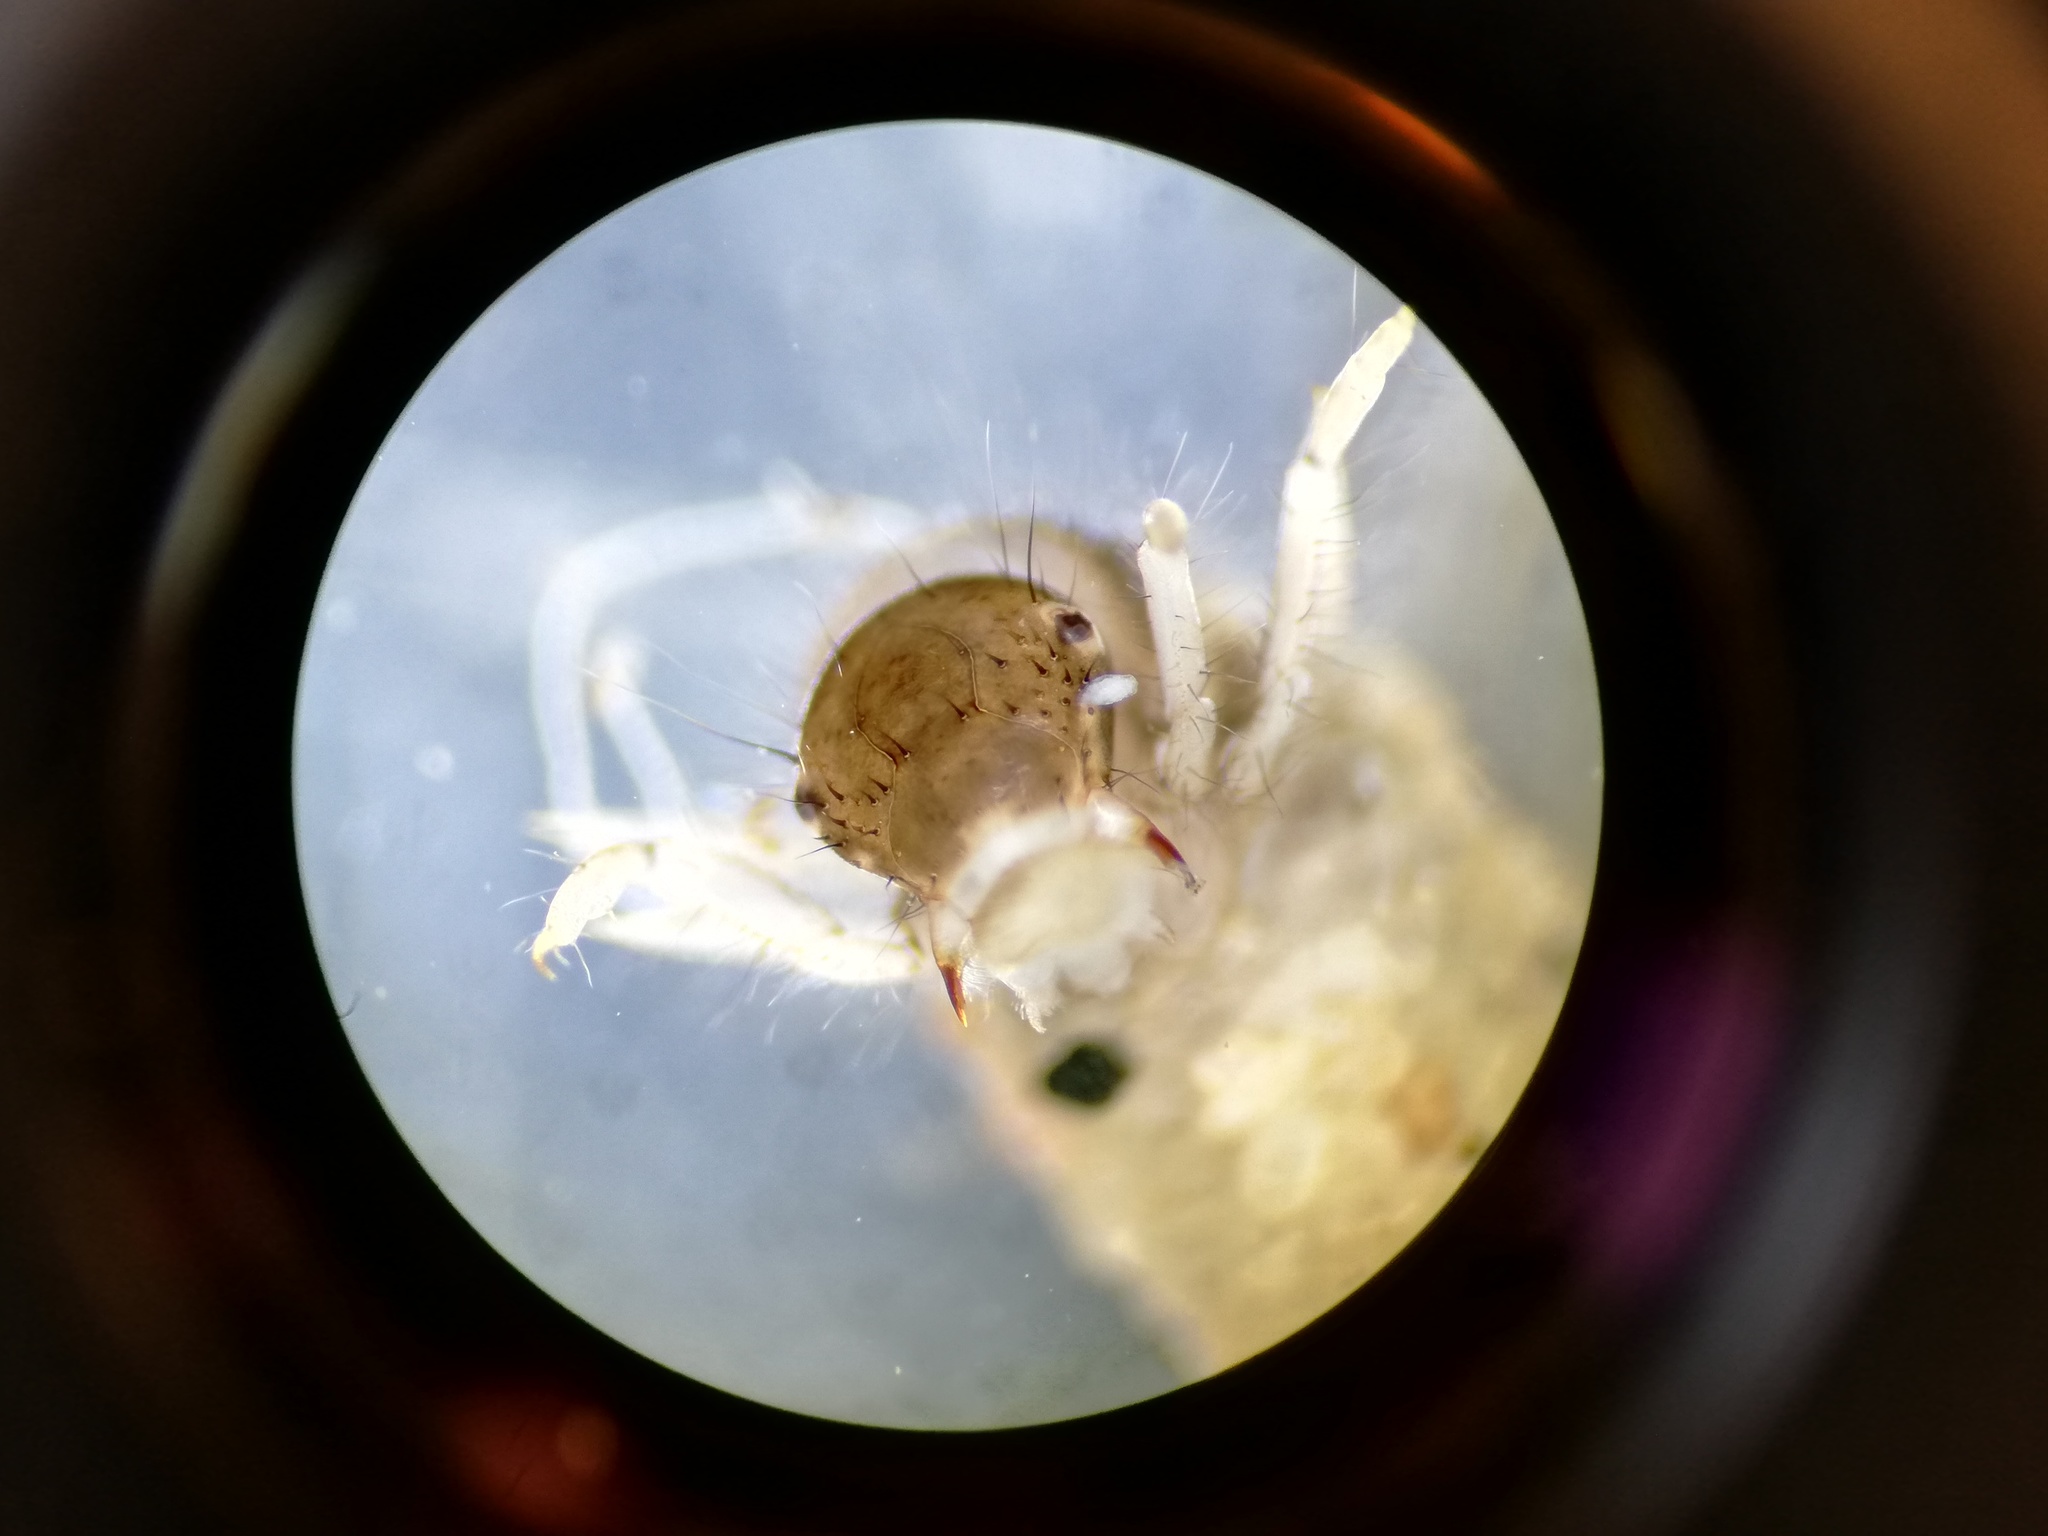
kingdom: Animalia
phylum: Arthropoda
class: Insecta
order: Trichoptera
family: Limnephilidae
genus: Ecclisopteryx
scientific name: Ecclisopteryx dalecarlica
